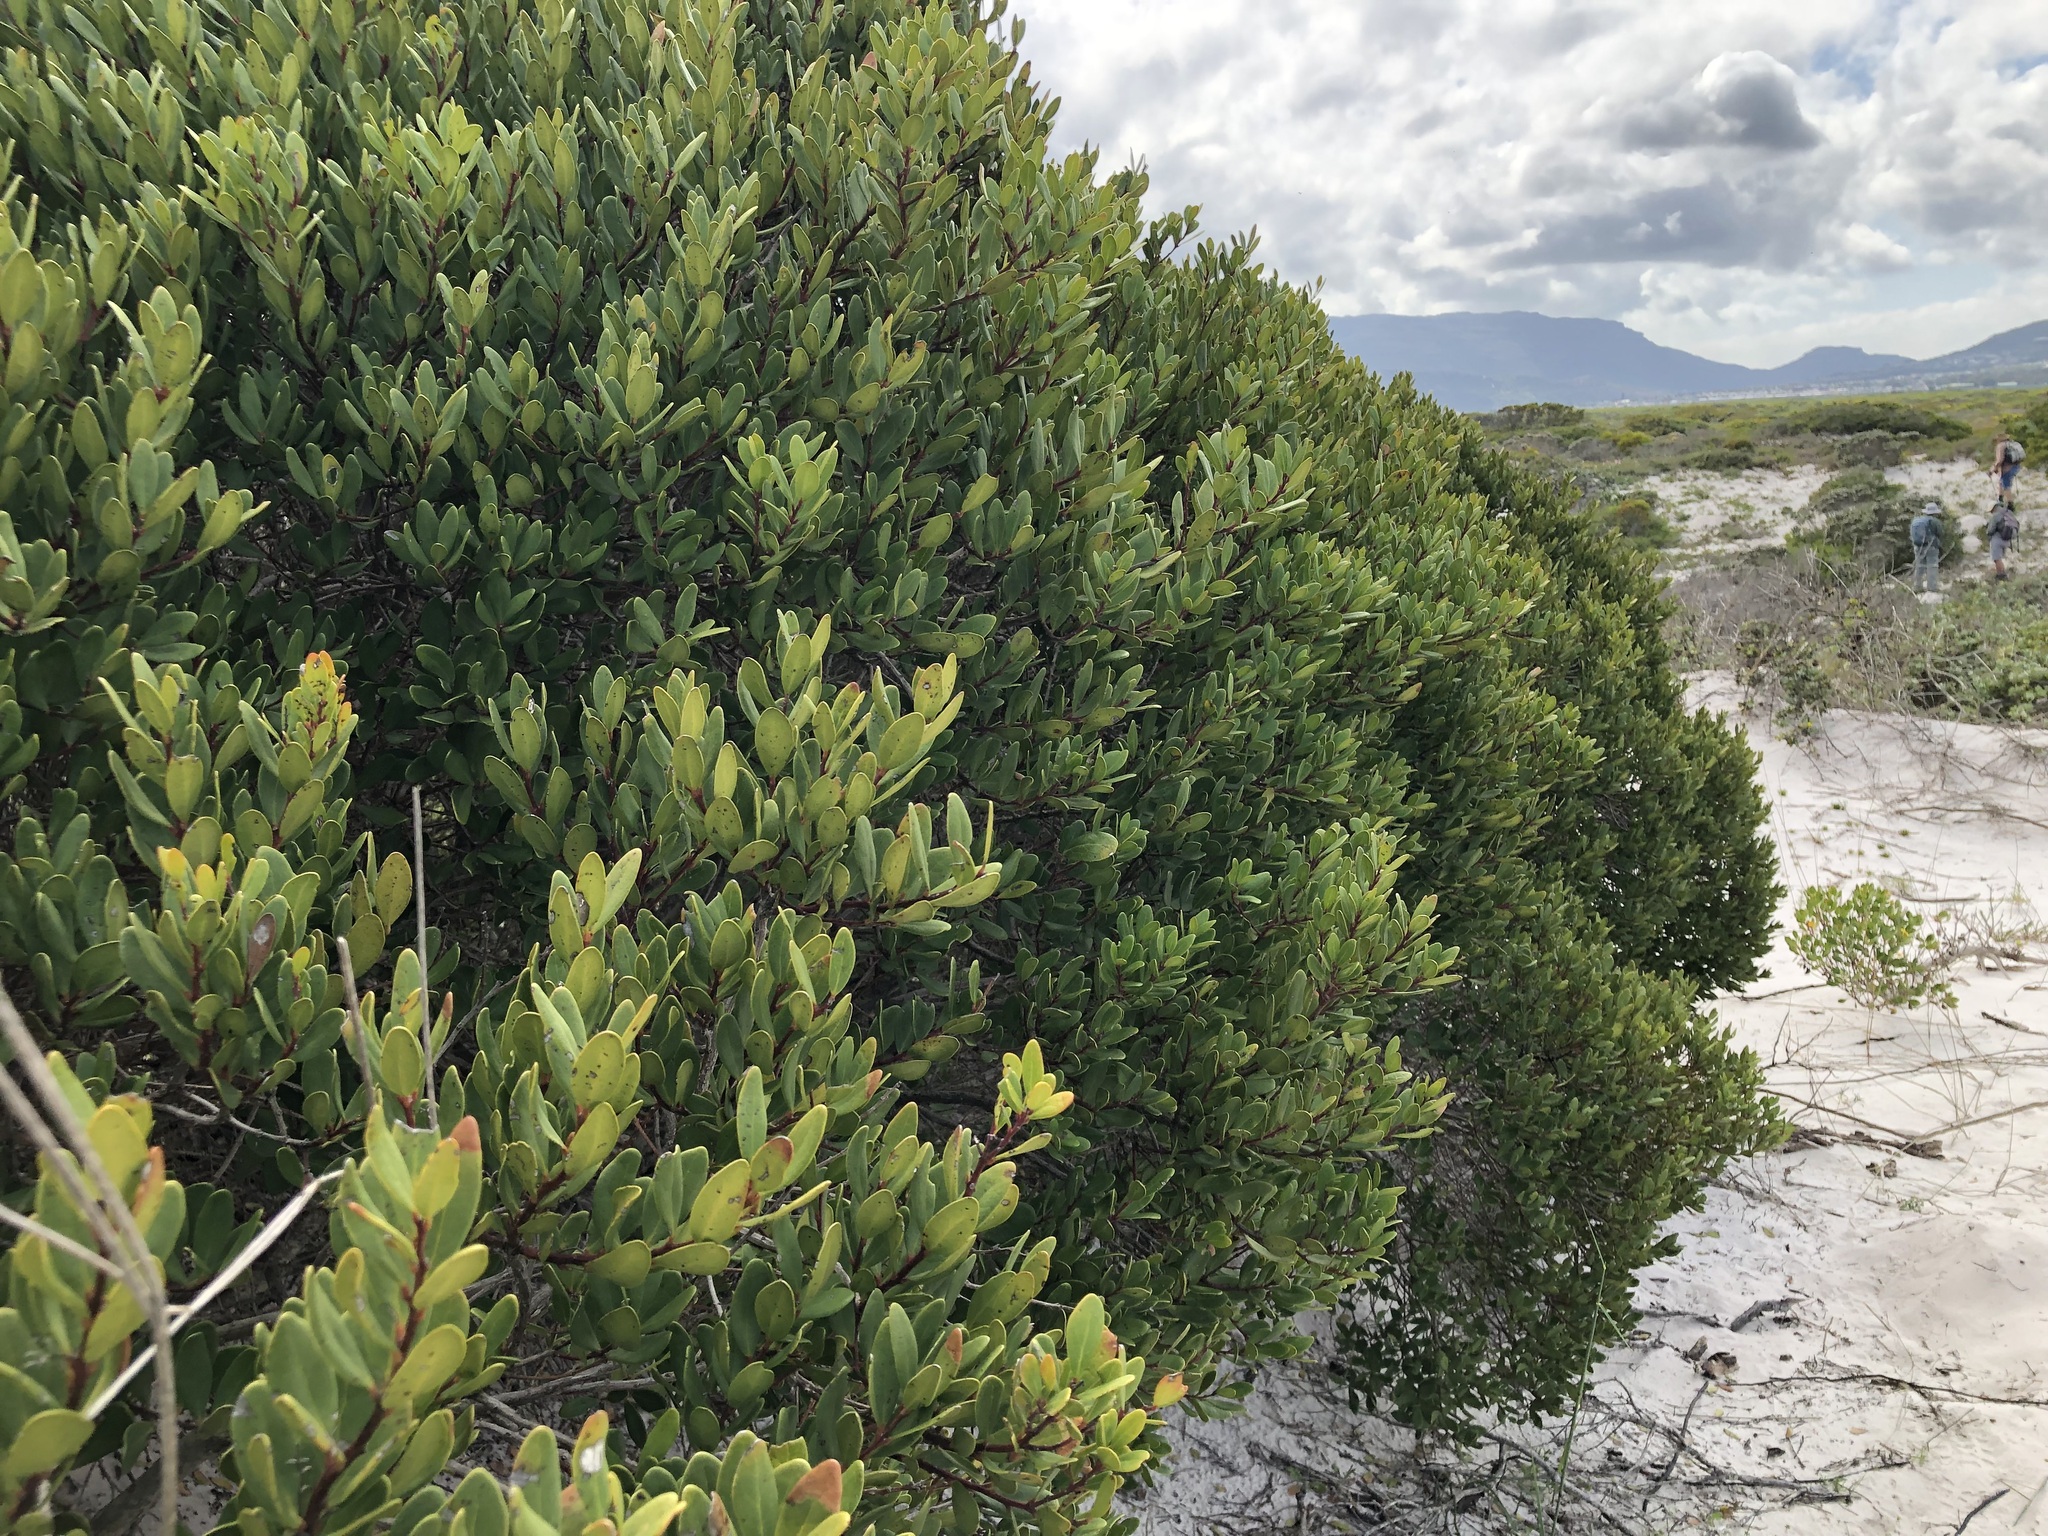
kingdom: Plantae
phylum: Tracheophyta
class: Magnoliopsida
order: Ericales
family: Ebenaceae
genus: Euclea
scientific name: Euclea racemosa
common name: Dune guarri
